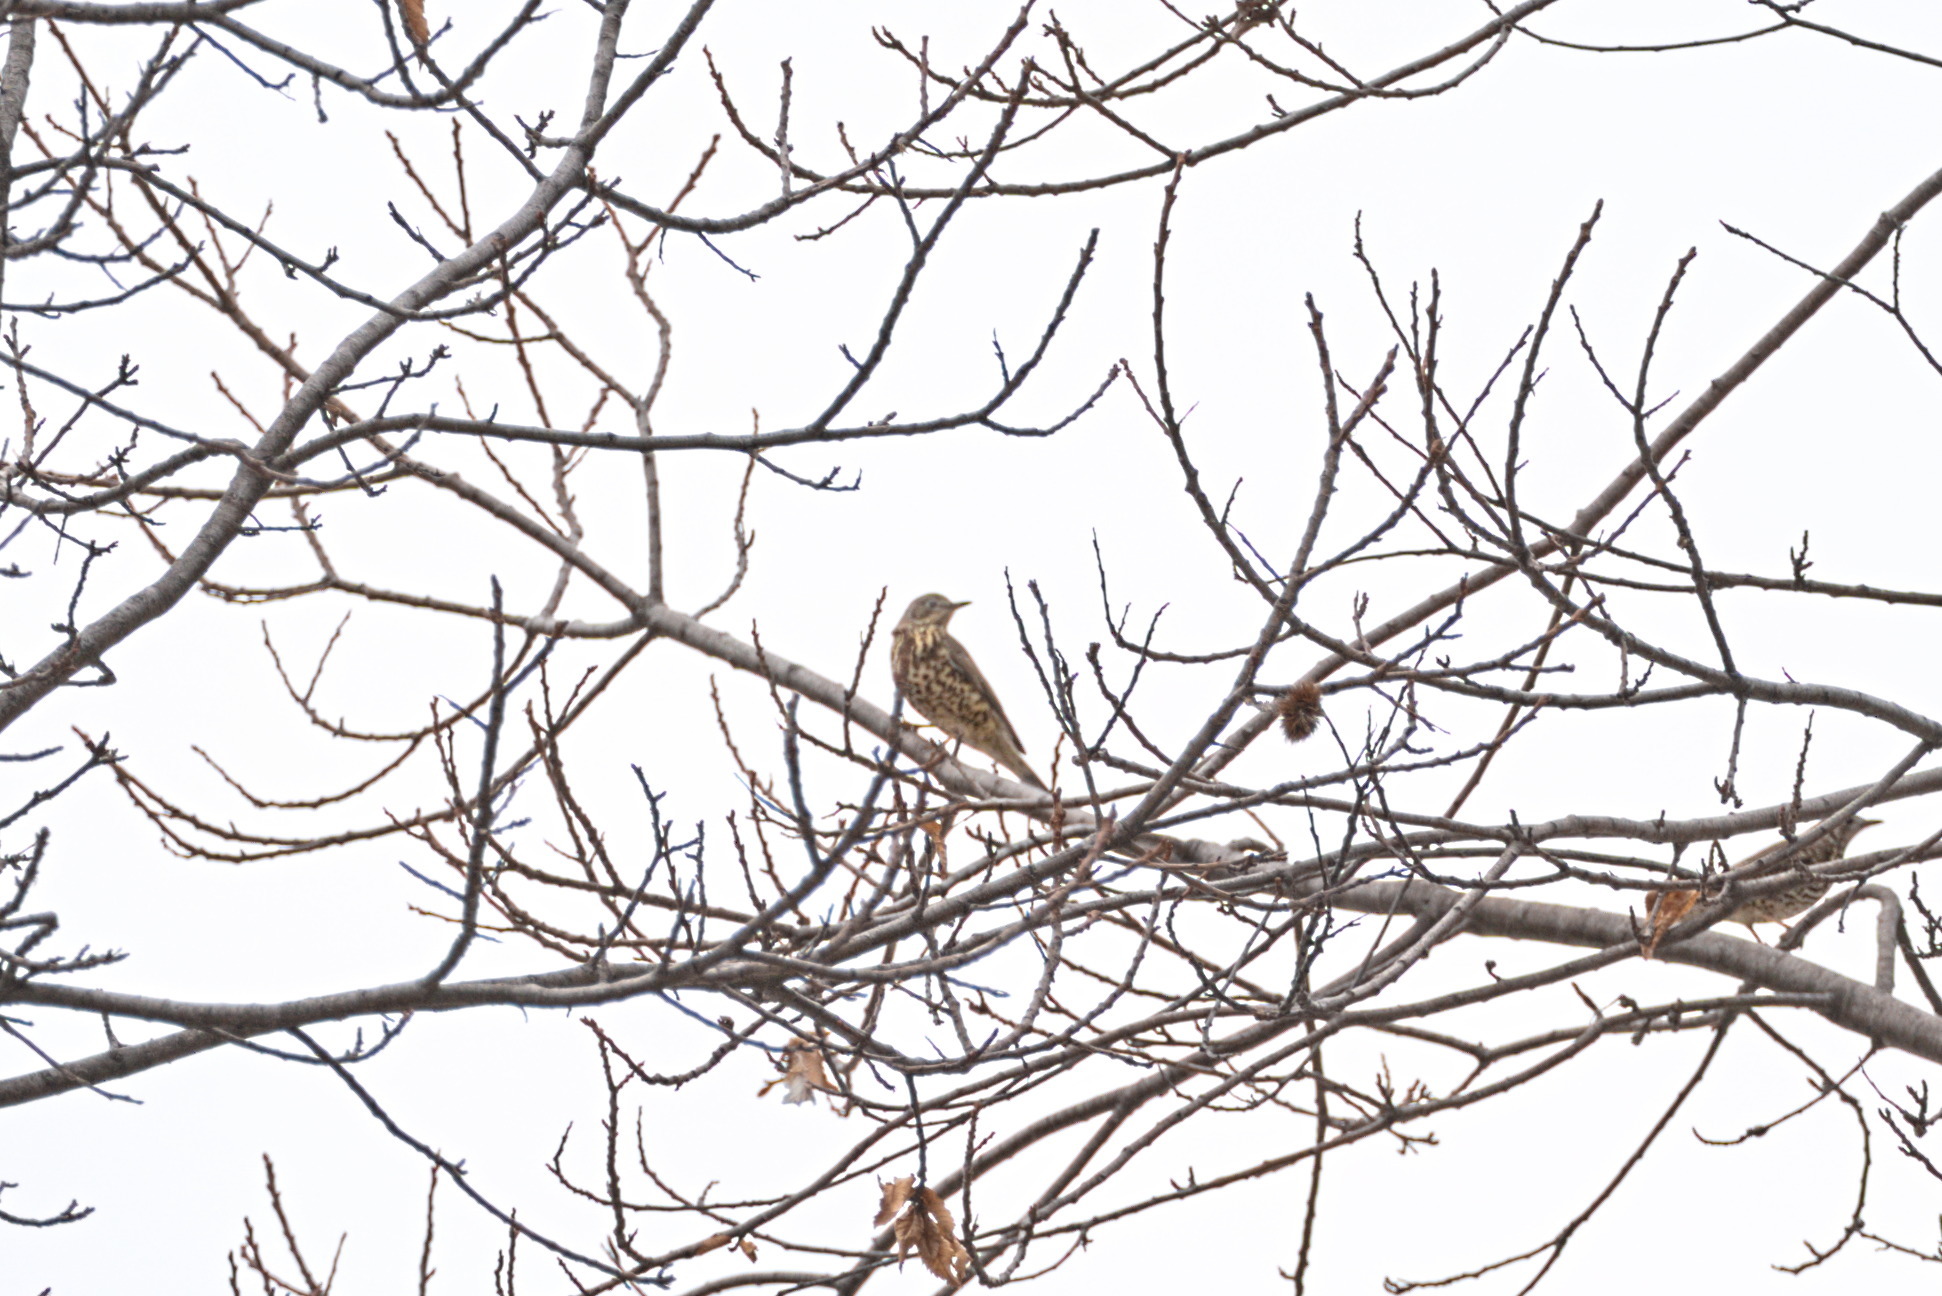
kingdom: Animalia
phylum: Chordata
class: Aves
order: Passeriformes
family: Turdidae
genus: Turdus
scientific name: Turdus viscivorus
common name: Mistle thrush
